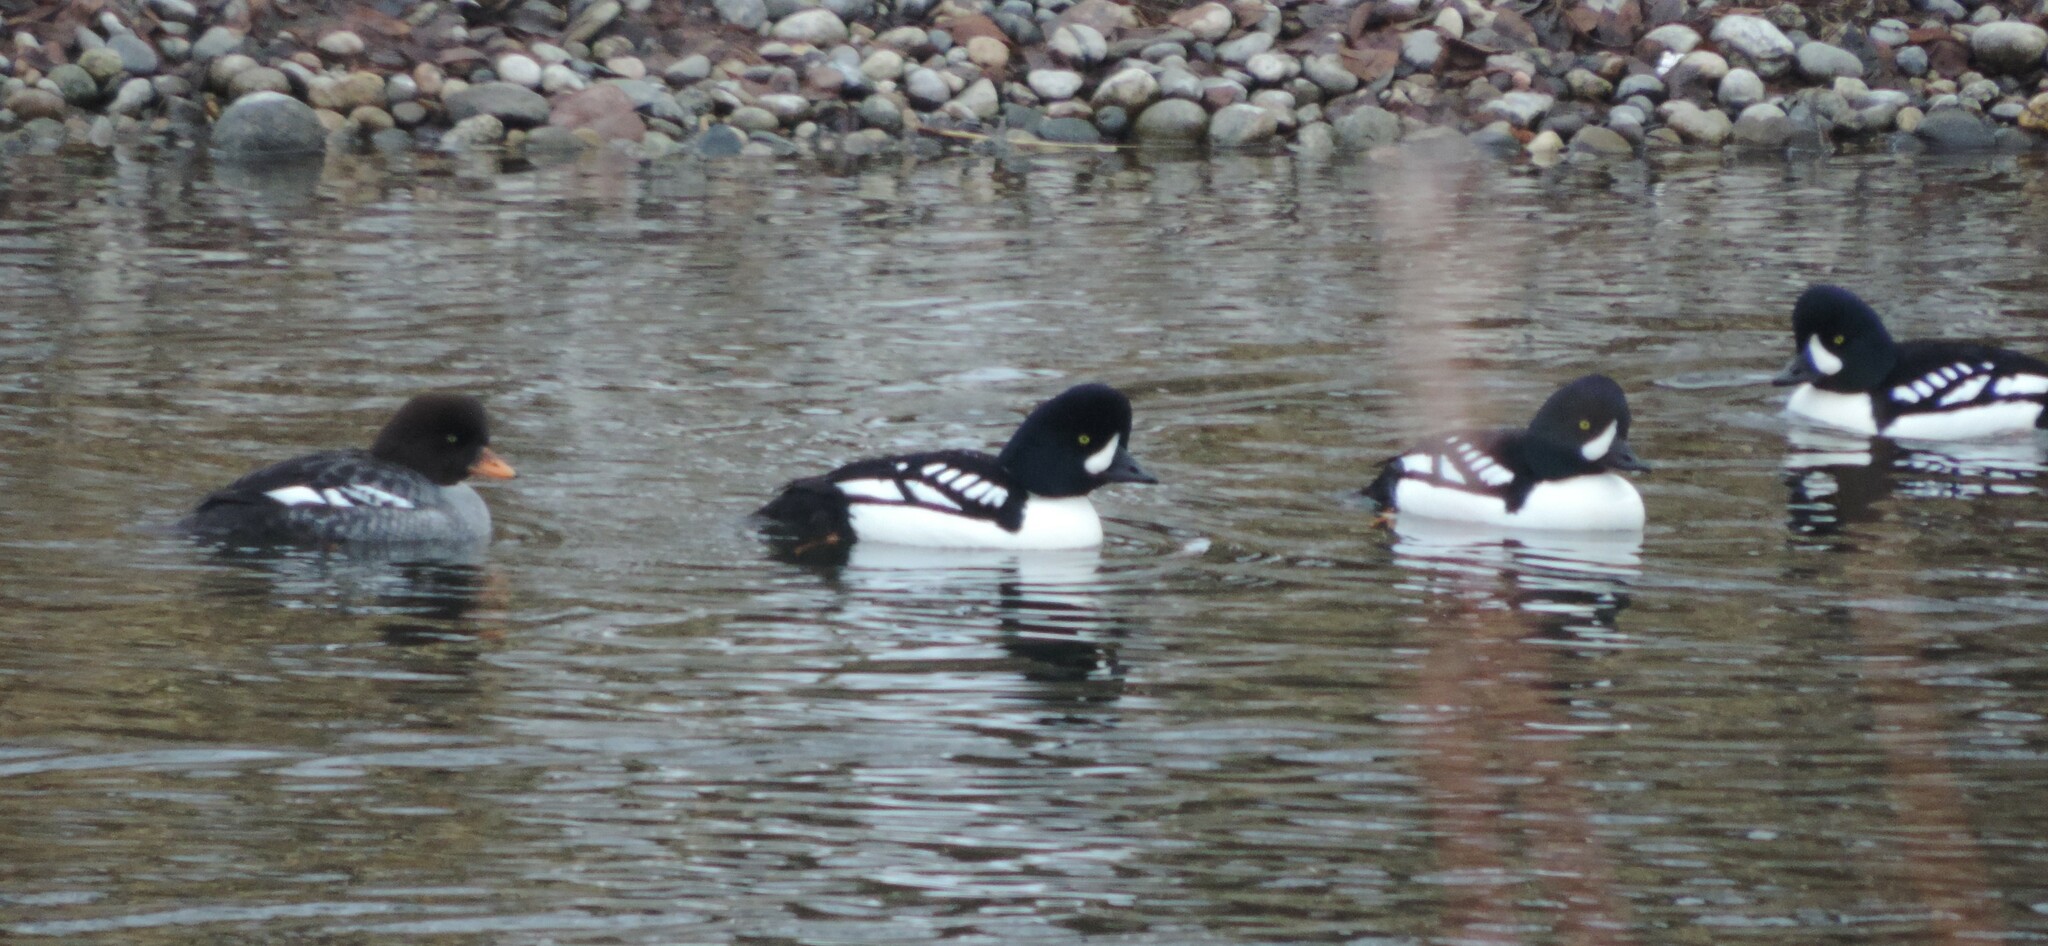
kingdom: Animalia
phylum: Chordata
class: Aves
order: Anseriformes
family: Anatidae
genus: Bucephala
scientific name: Bucephala islandica
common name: Barrow's goldeneye
